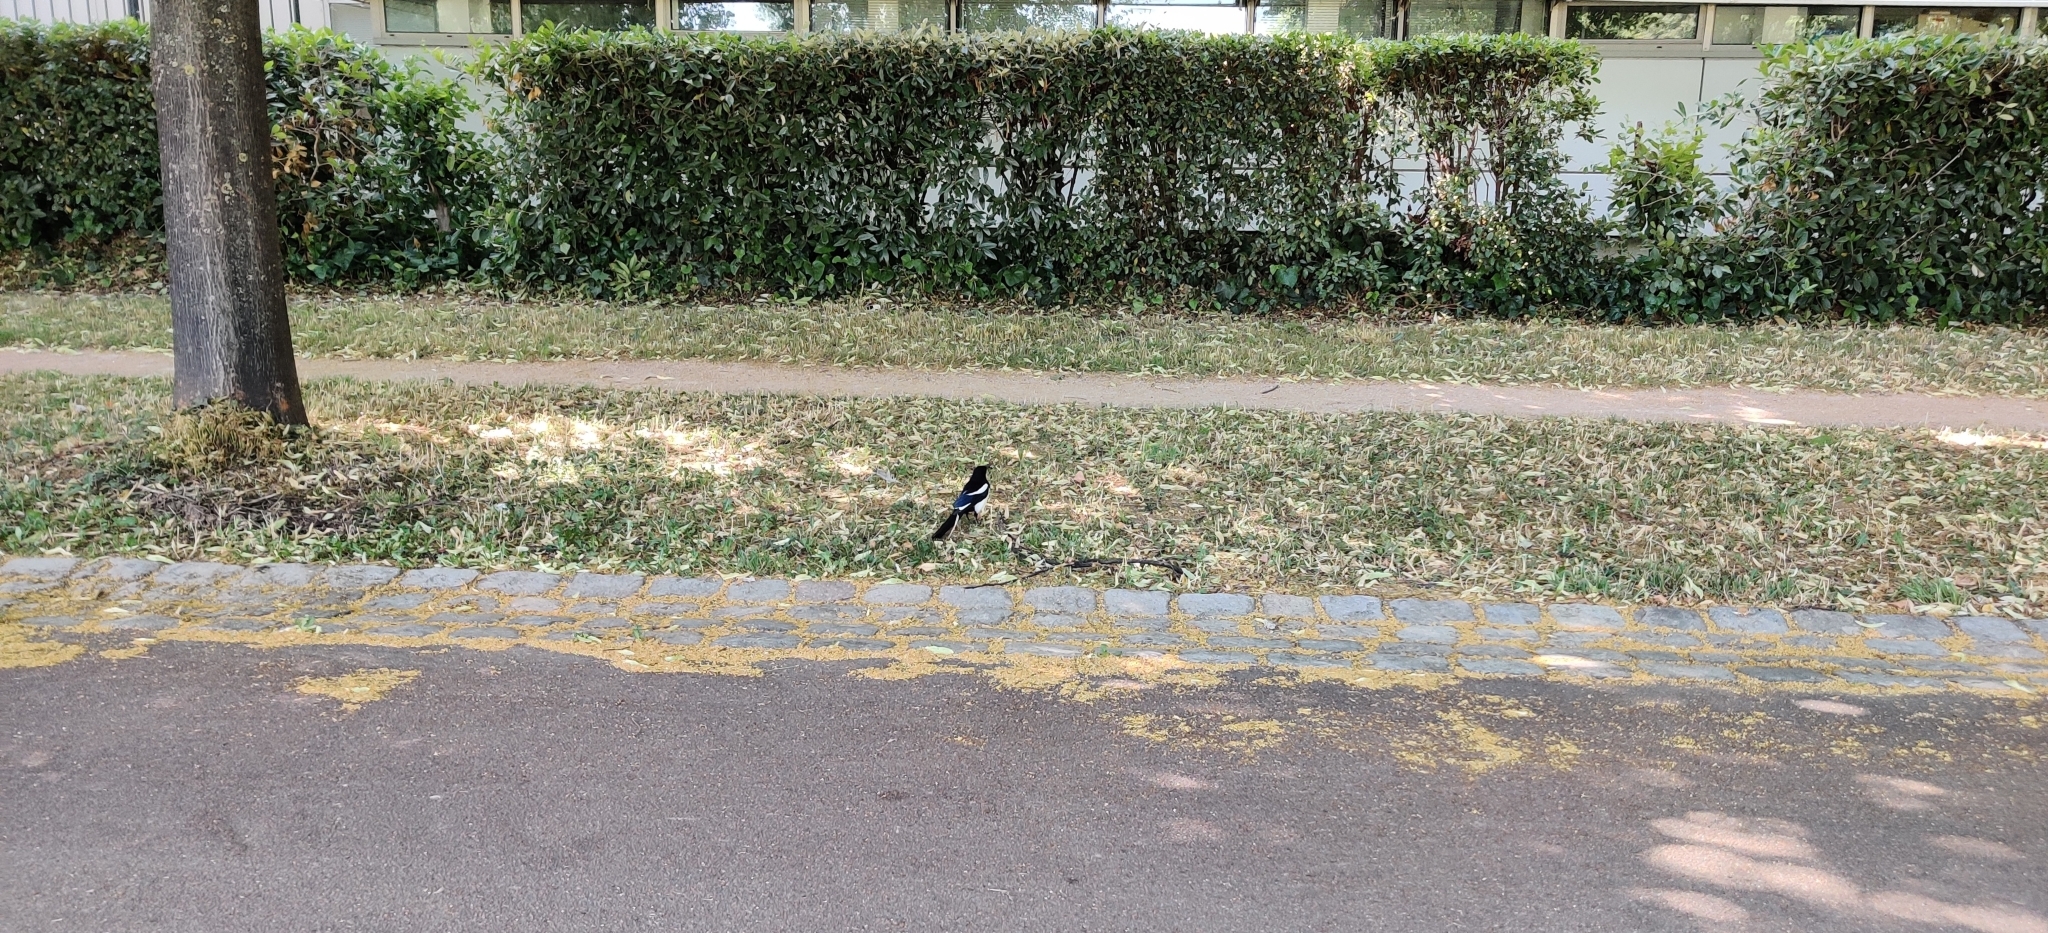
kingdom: Animalia
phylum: Chordata
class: Aves
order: Passeriformes
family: Corvidae
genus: Pica
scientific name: Pica pica
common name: Eurasian magpie
